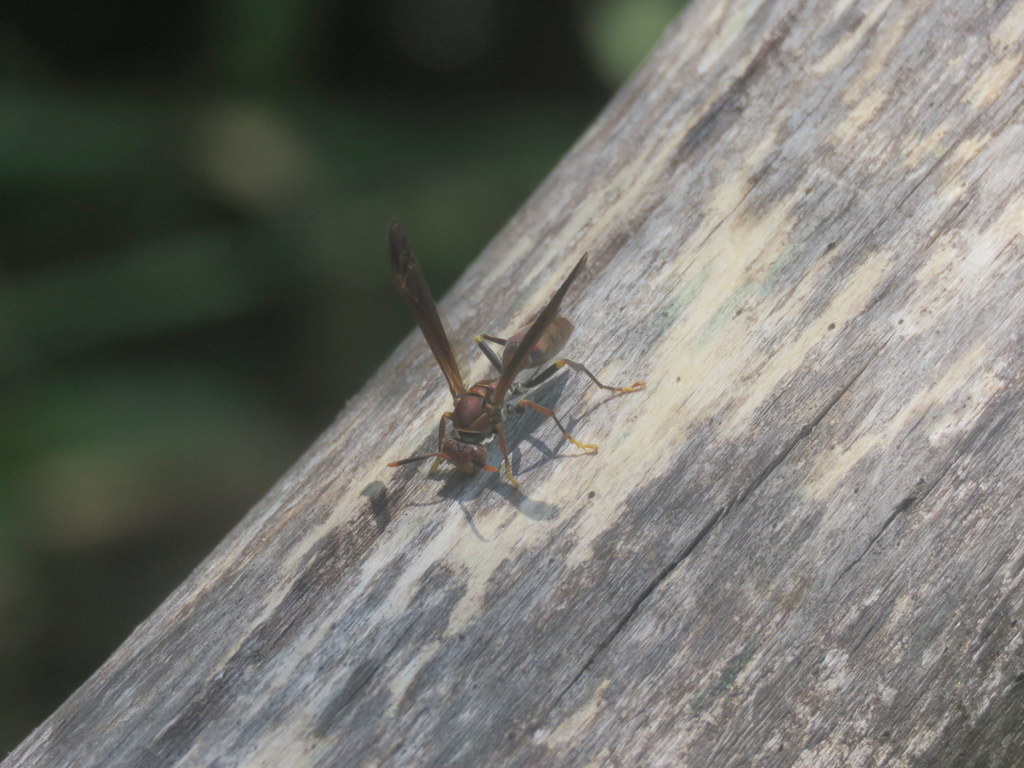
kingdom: Animalia
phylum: Arthropoda
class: Insecta
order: Hymenoptera
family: Pompilidae
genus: Aphanilopterus
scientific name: Aphanilopterus
